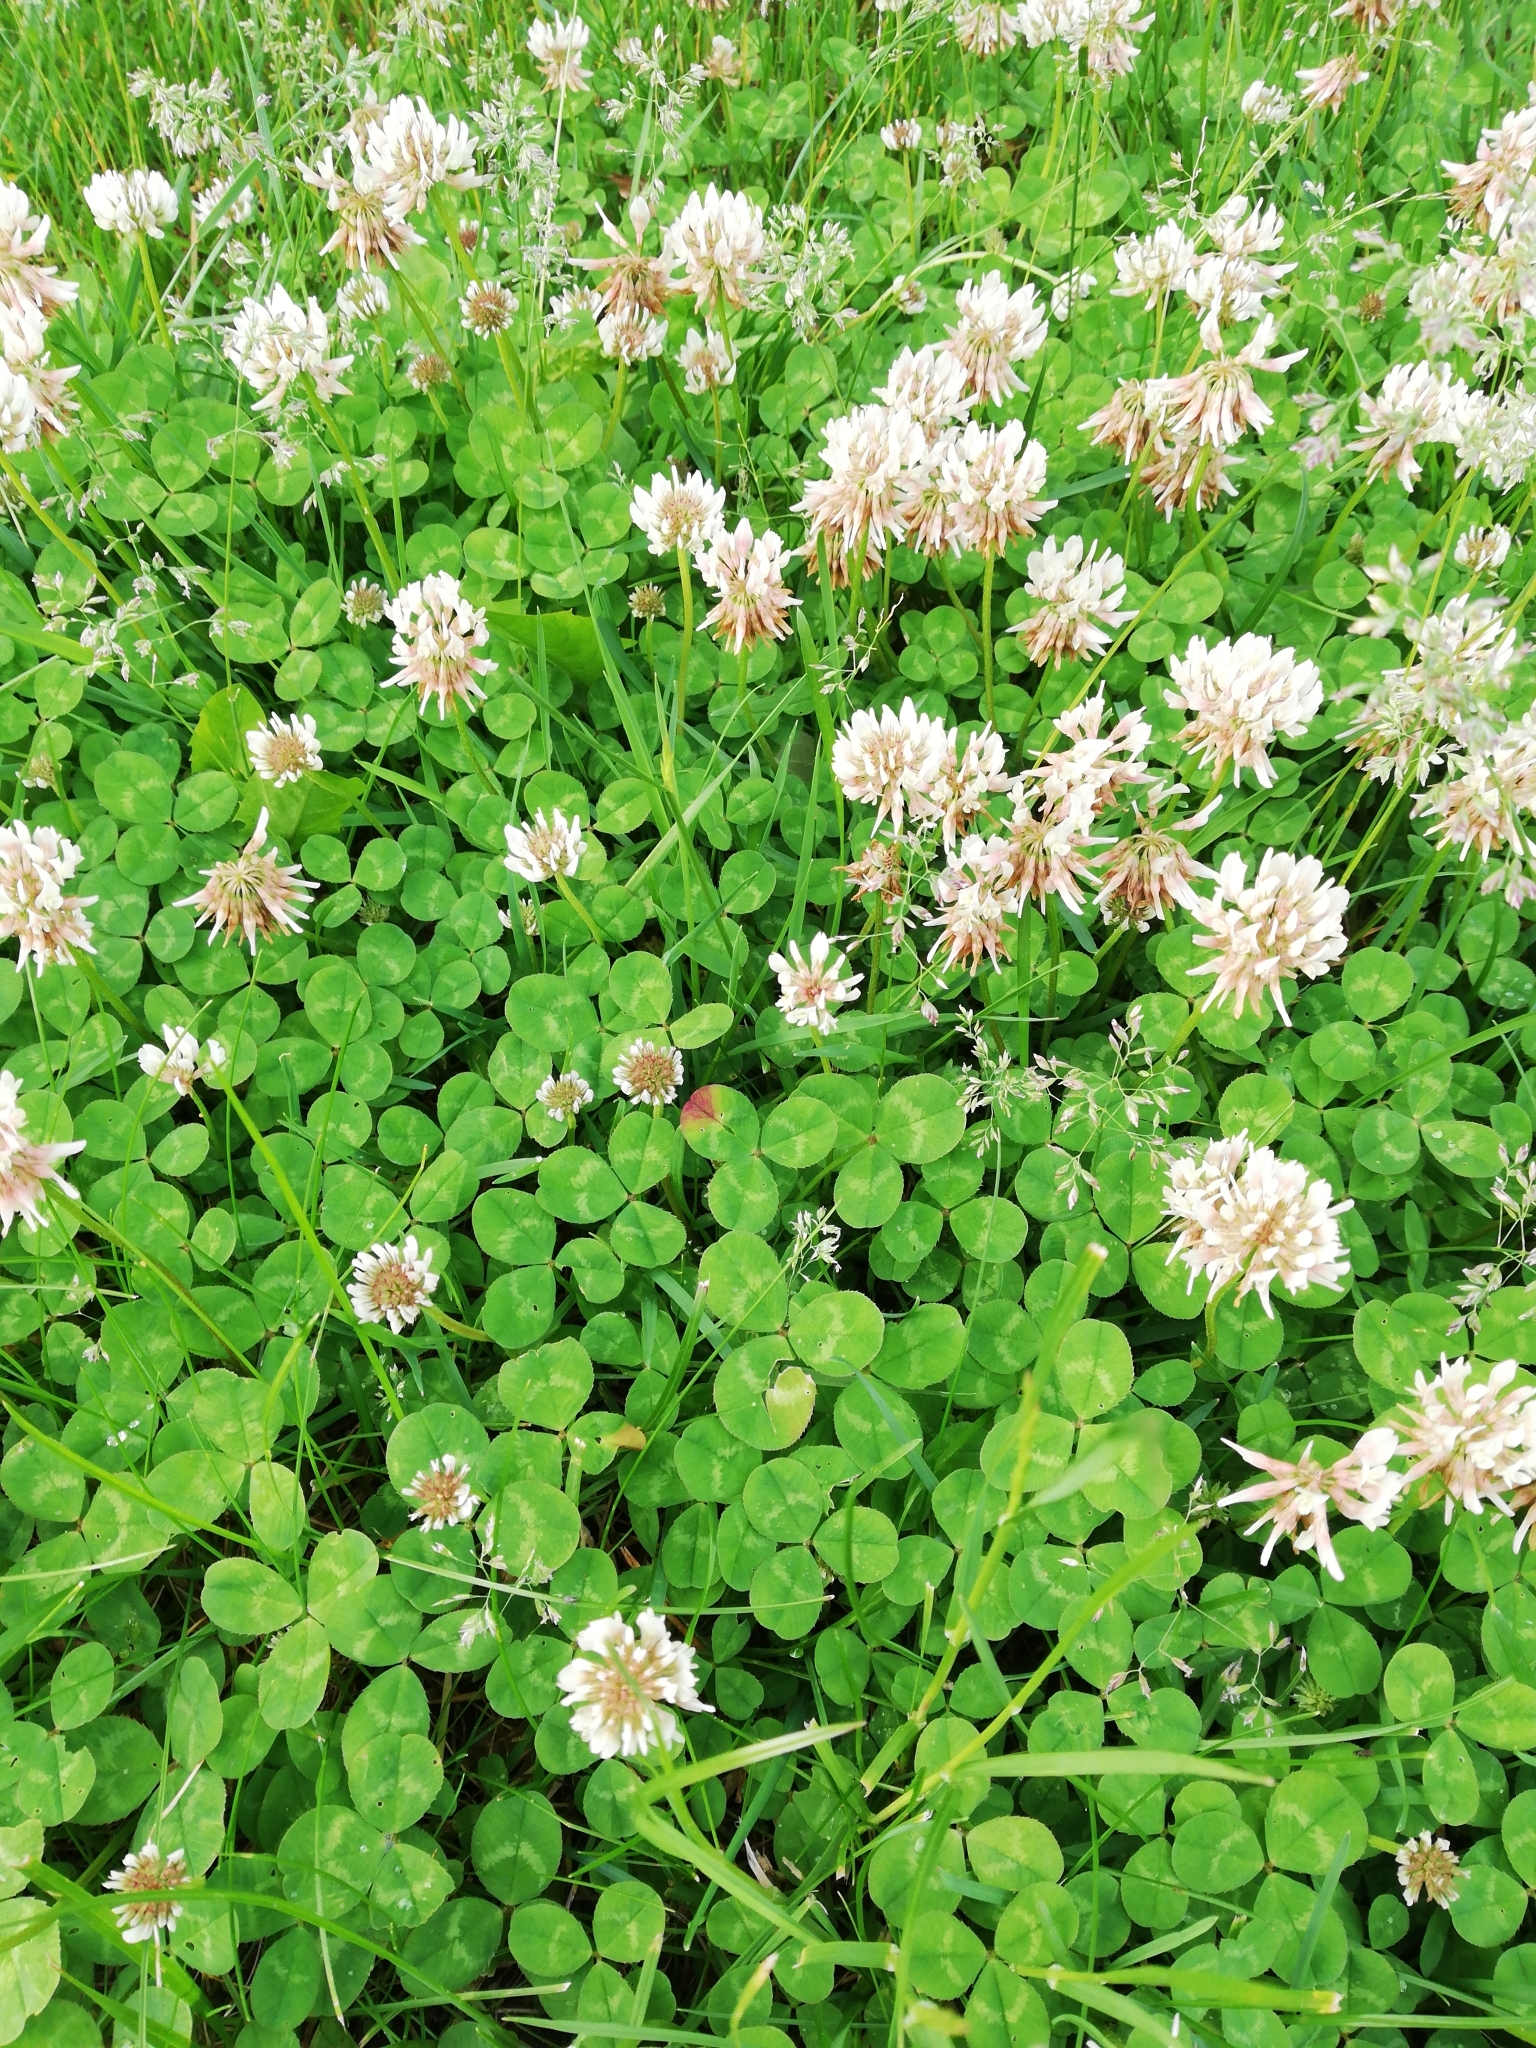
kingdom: Plantae
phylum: Tracheophyta
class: Magnoliopsida
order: Fabales
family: Fabaceae
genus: Trifolium
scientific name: Trifolium repens
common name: White clover
